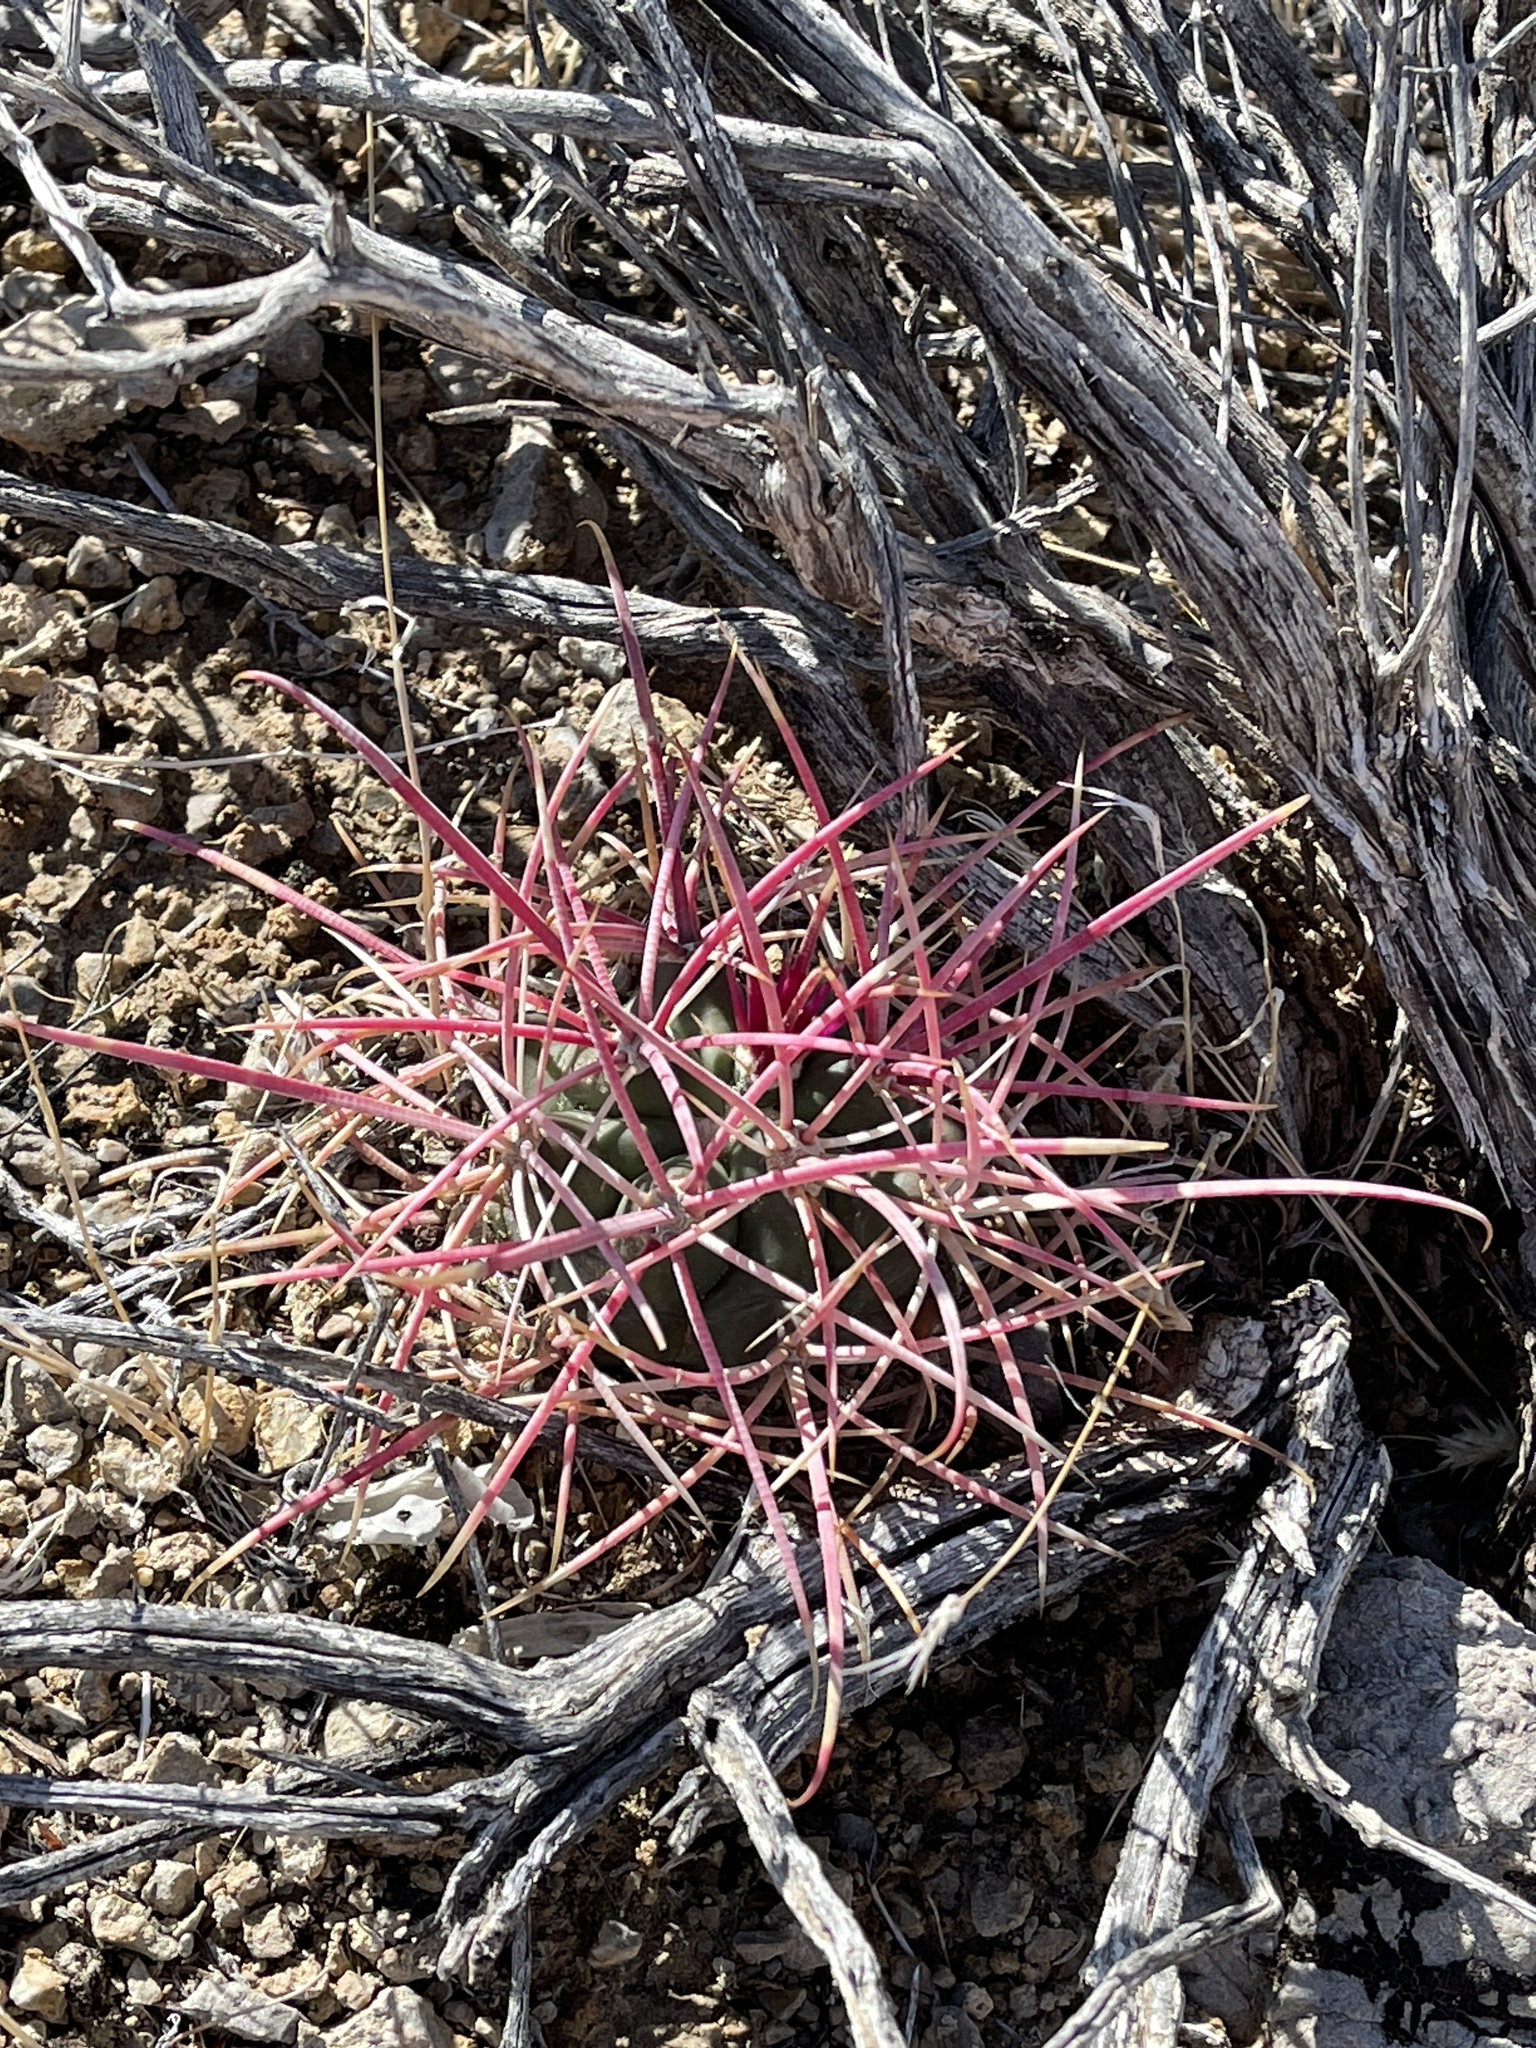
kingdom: Plantae
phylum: Tracheophyta
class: Magnoliopsida
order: Caryophyllales
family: Cactaceae
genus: Ferocactus
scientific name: Ferocactus cylindraceus
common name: California barrel cactus
